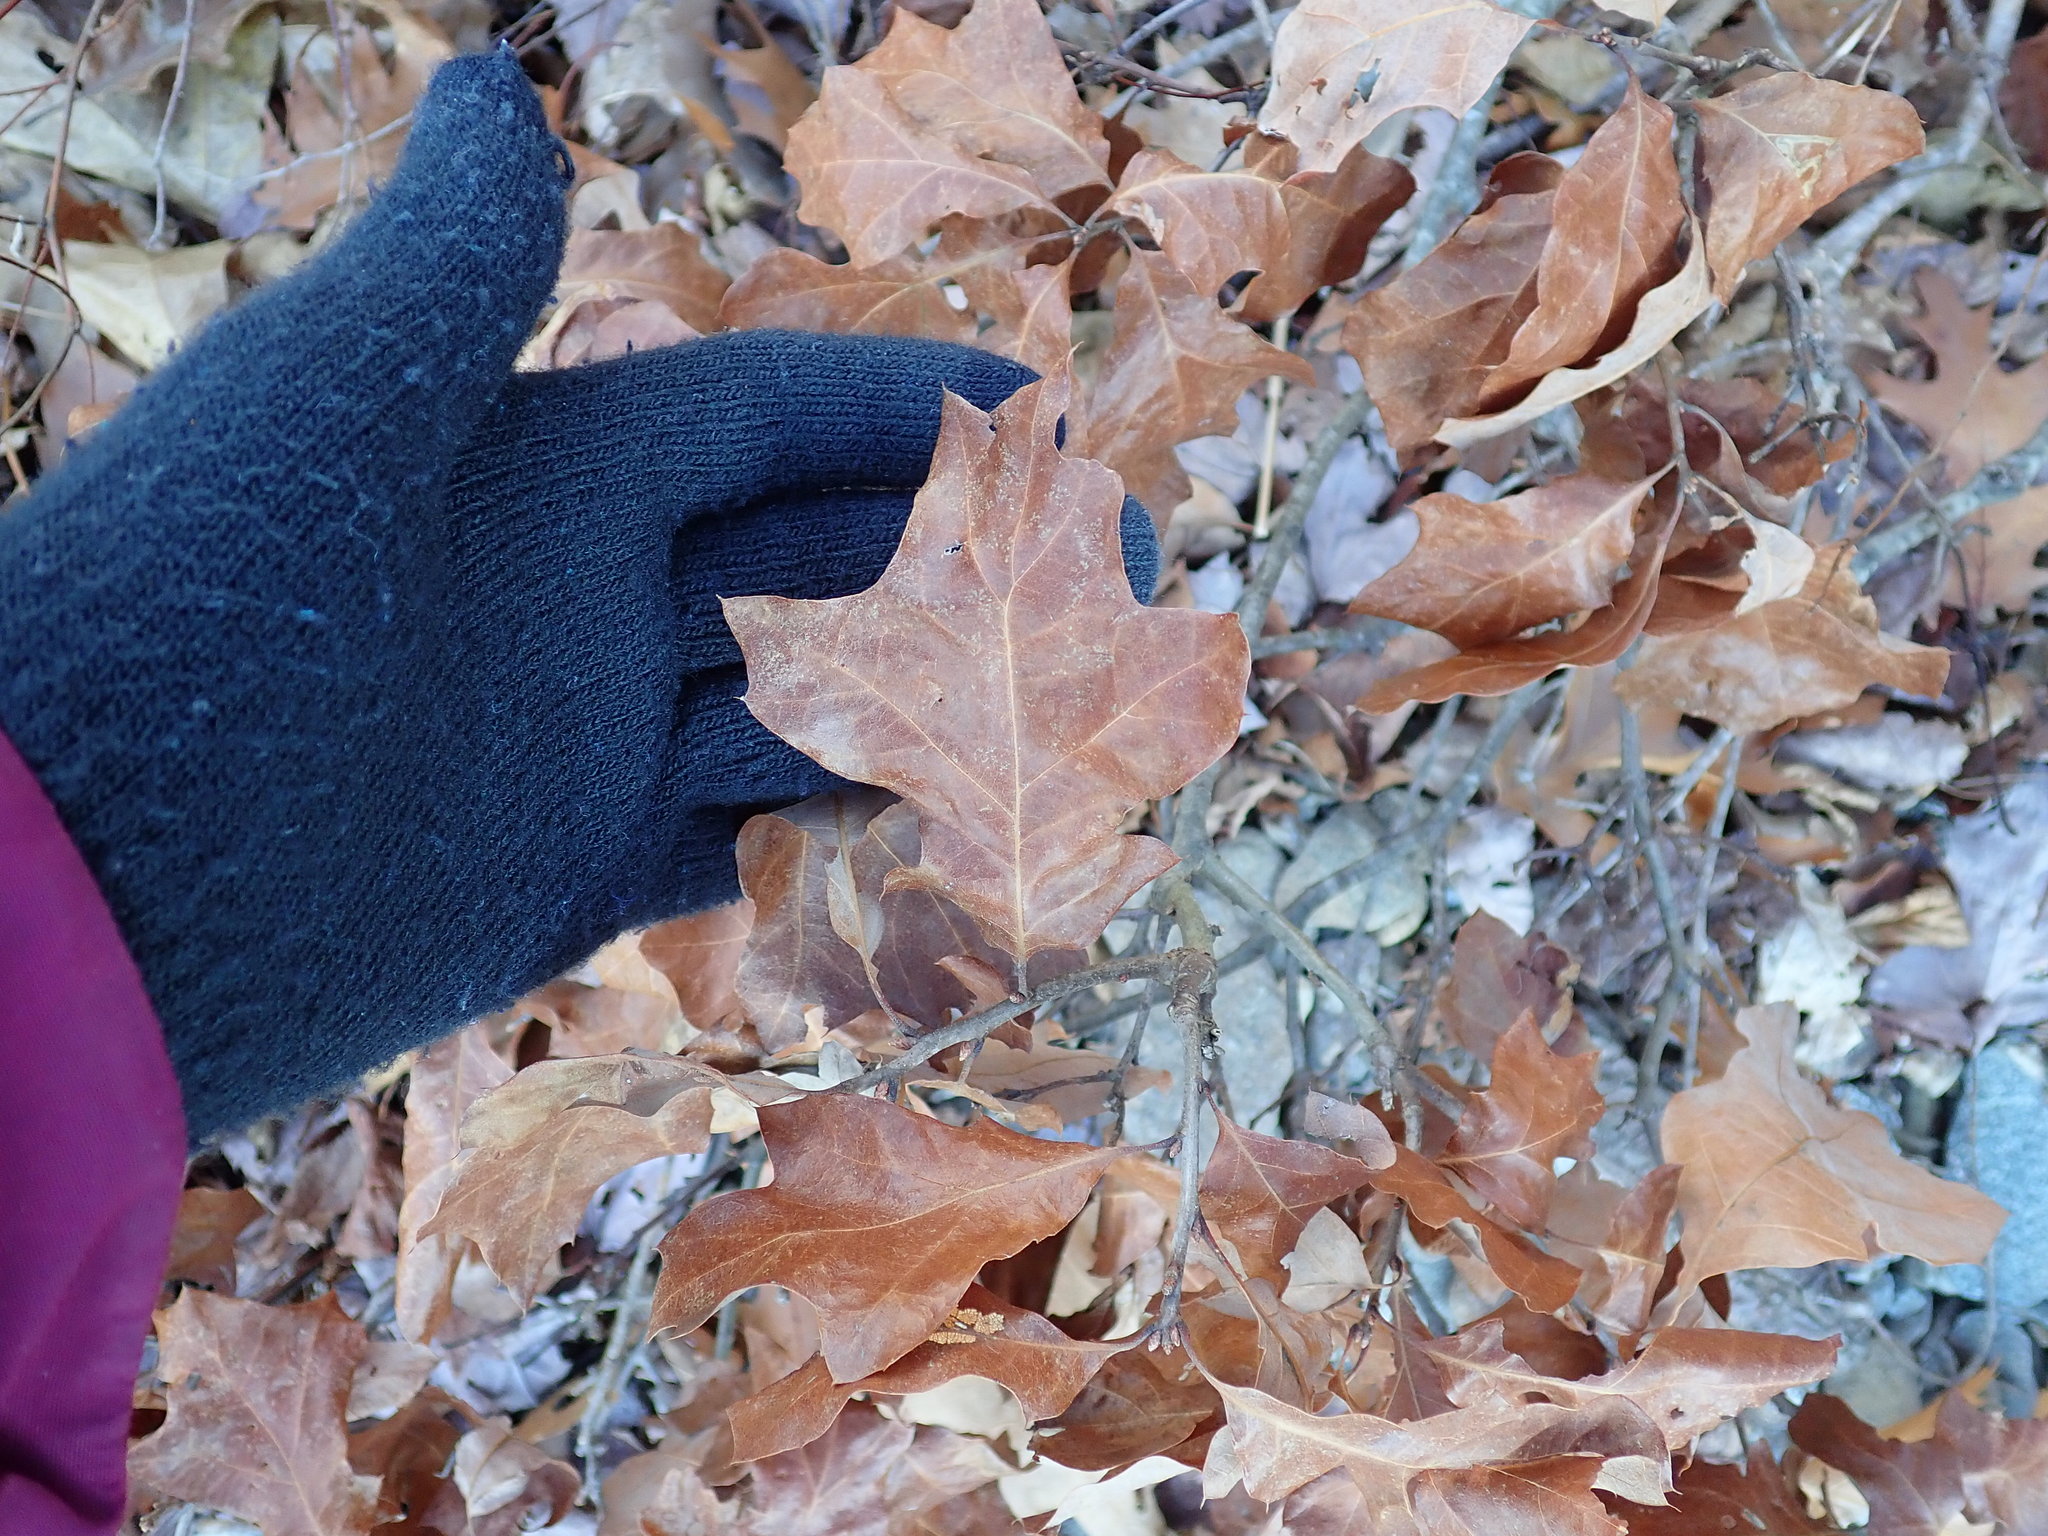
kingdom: Plantae
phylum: Tracheophyta
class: Magnoliopsida
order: Fagales
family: Fagaceae
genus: Quercus
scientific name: Quercus ilicifolia
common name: Bear oak
